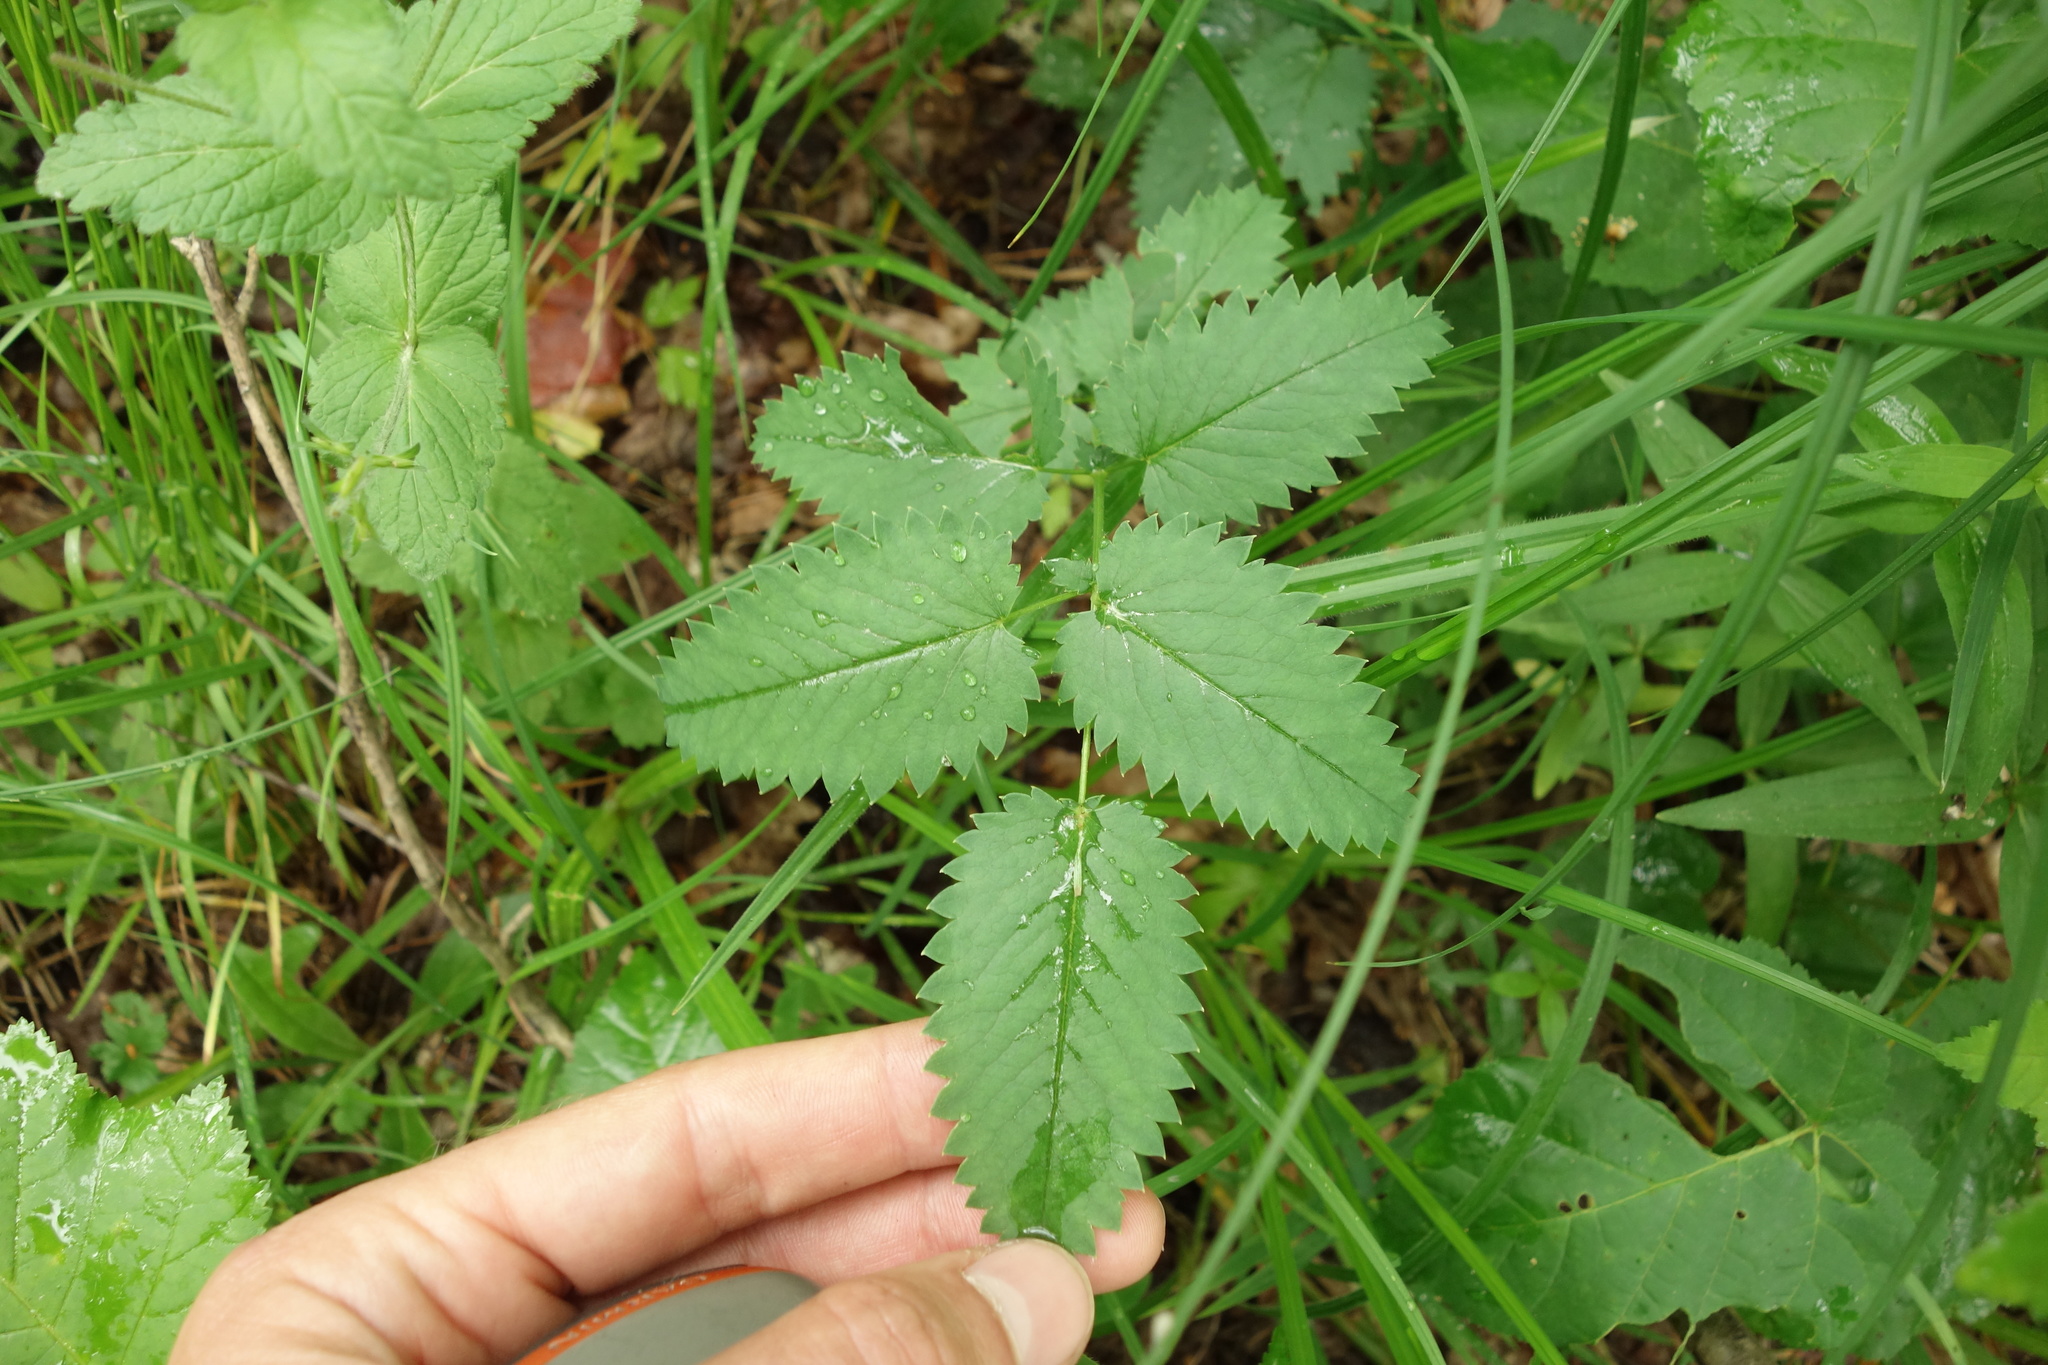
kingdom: Plantae
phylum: Tracheophyta
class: Magnoliopsida
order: Rosales
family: Rosaceae
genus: Sanguisorba
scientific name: Sanguisorba officinalis
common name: Great burnet
